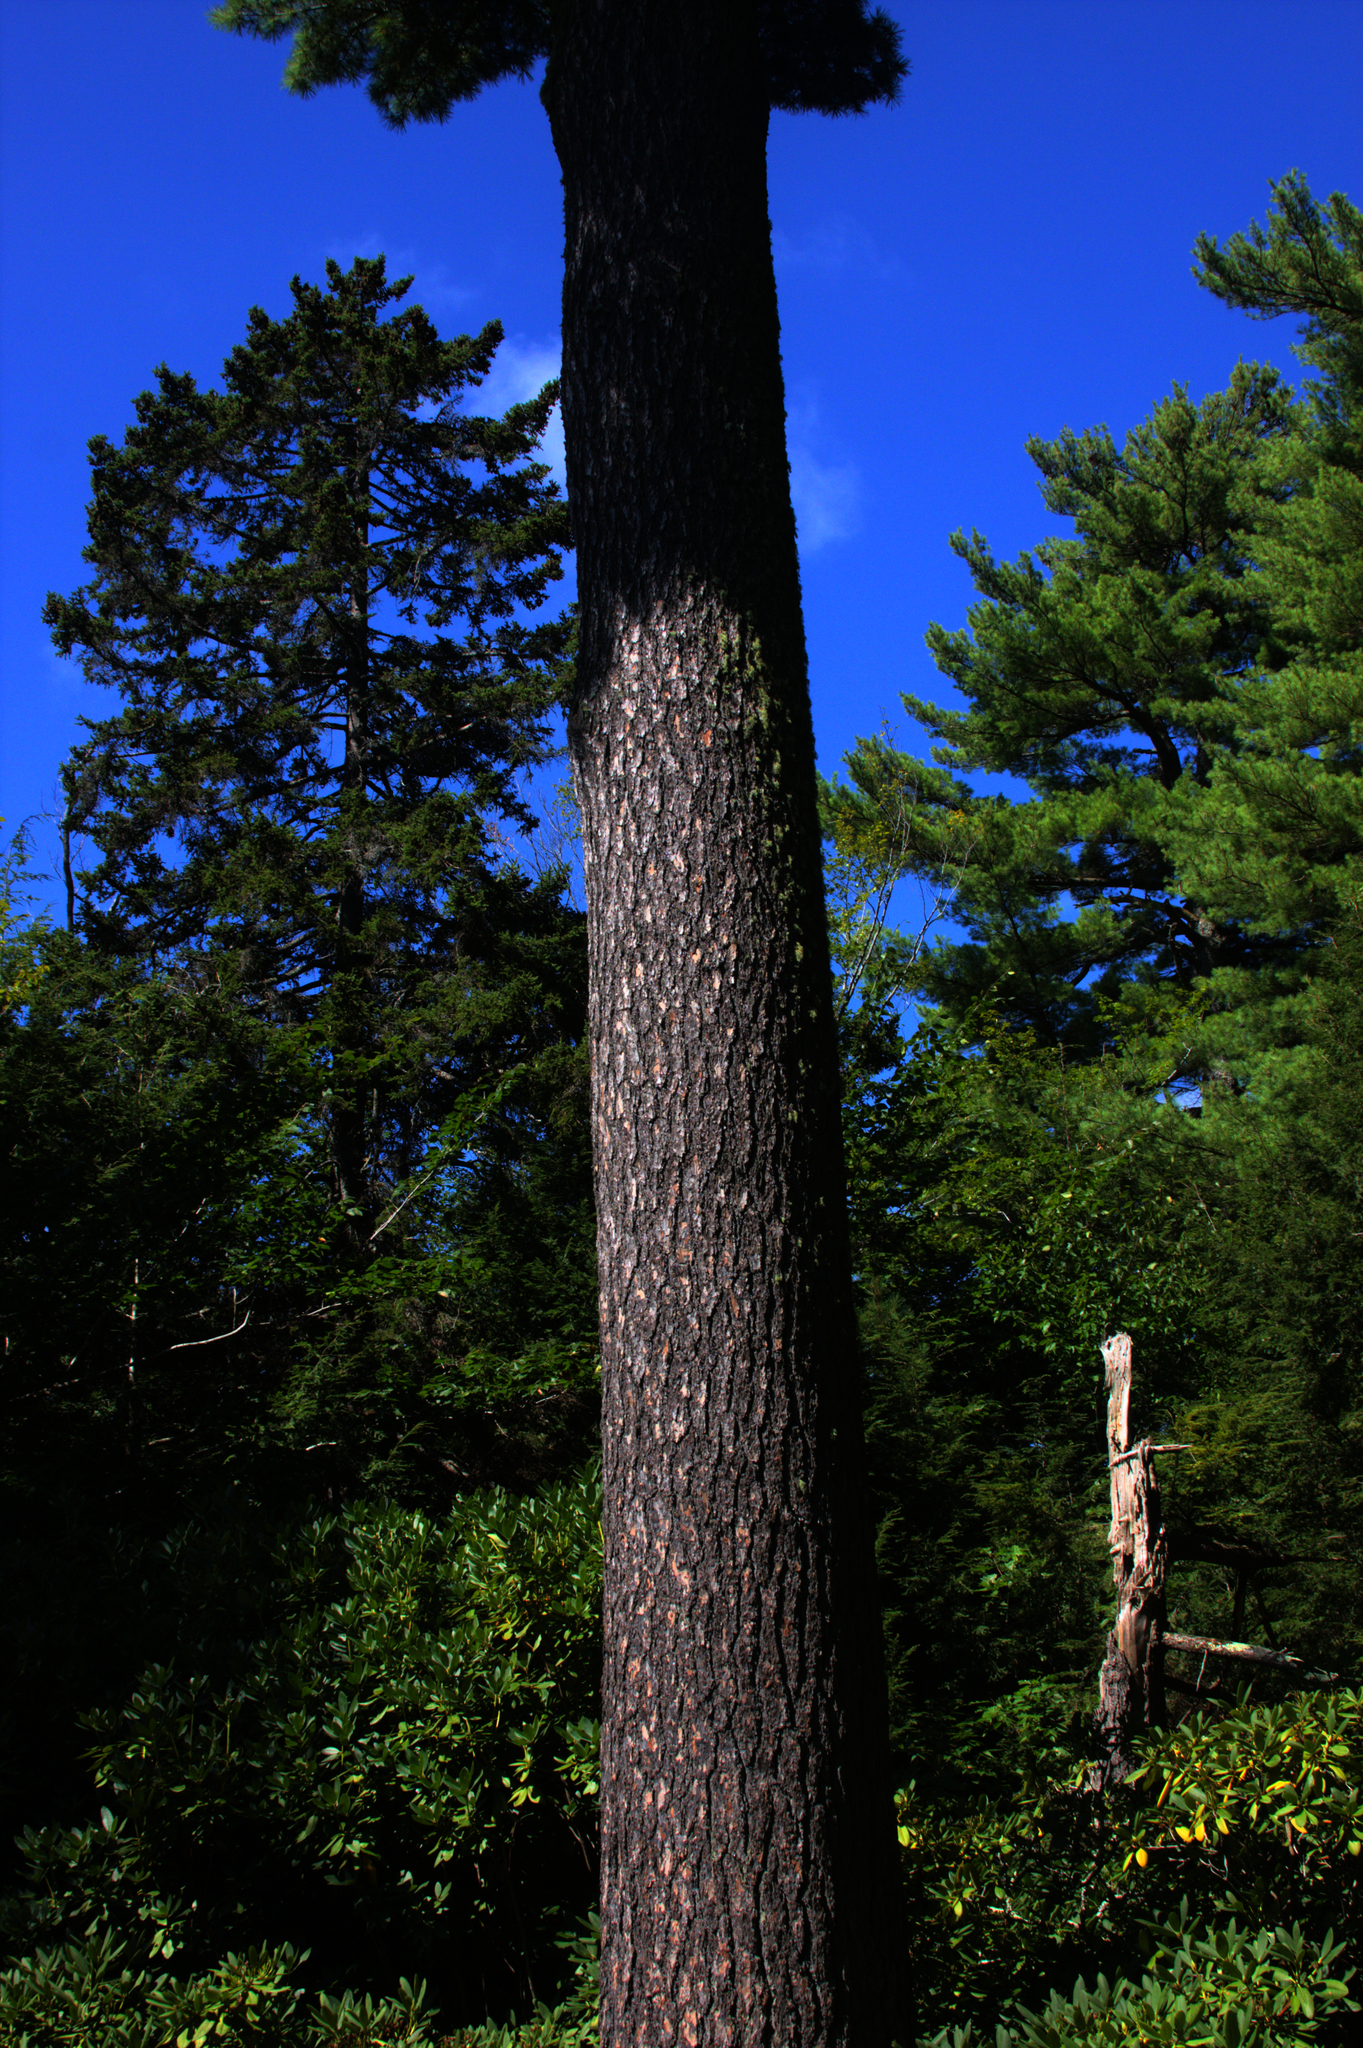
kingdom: Plantae
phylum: Tracheophyta
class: Pinopsida
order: Pinales
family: Pinaceae
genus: Pinus
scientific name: Pinus strobus
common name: Weymouth pine
